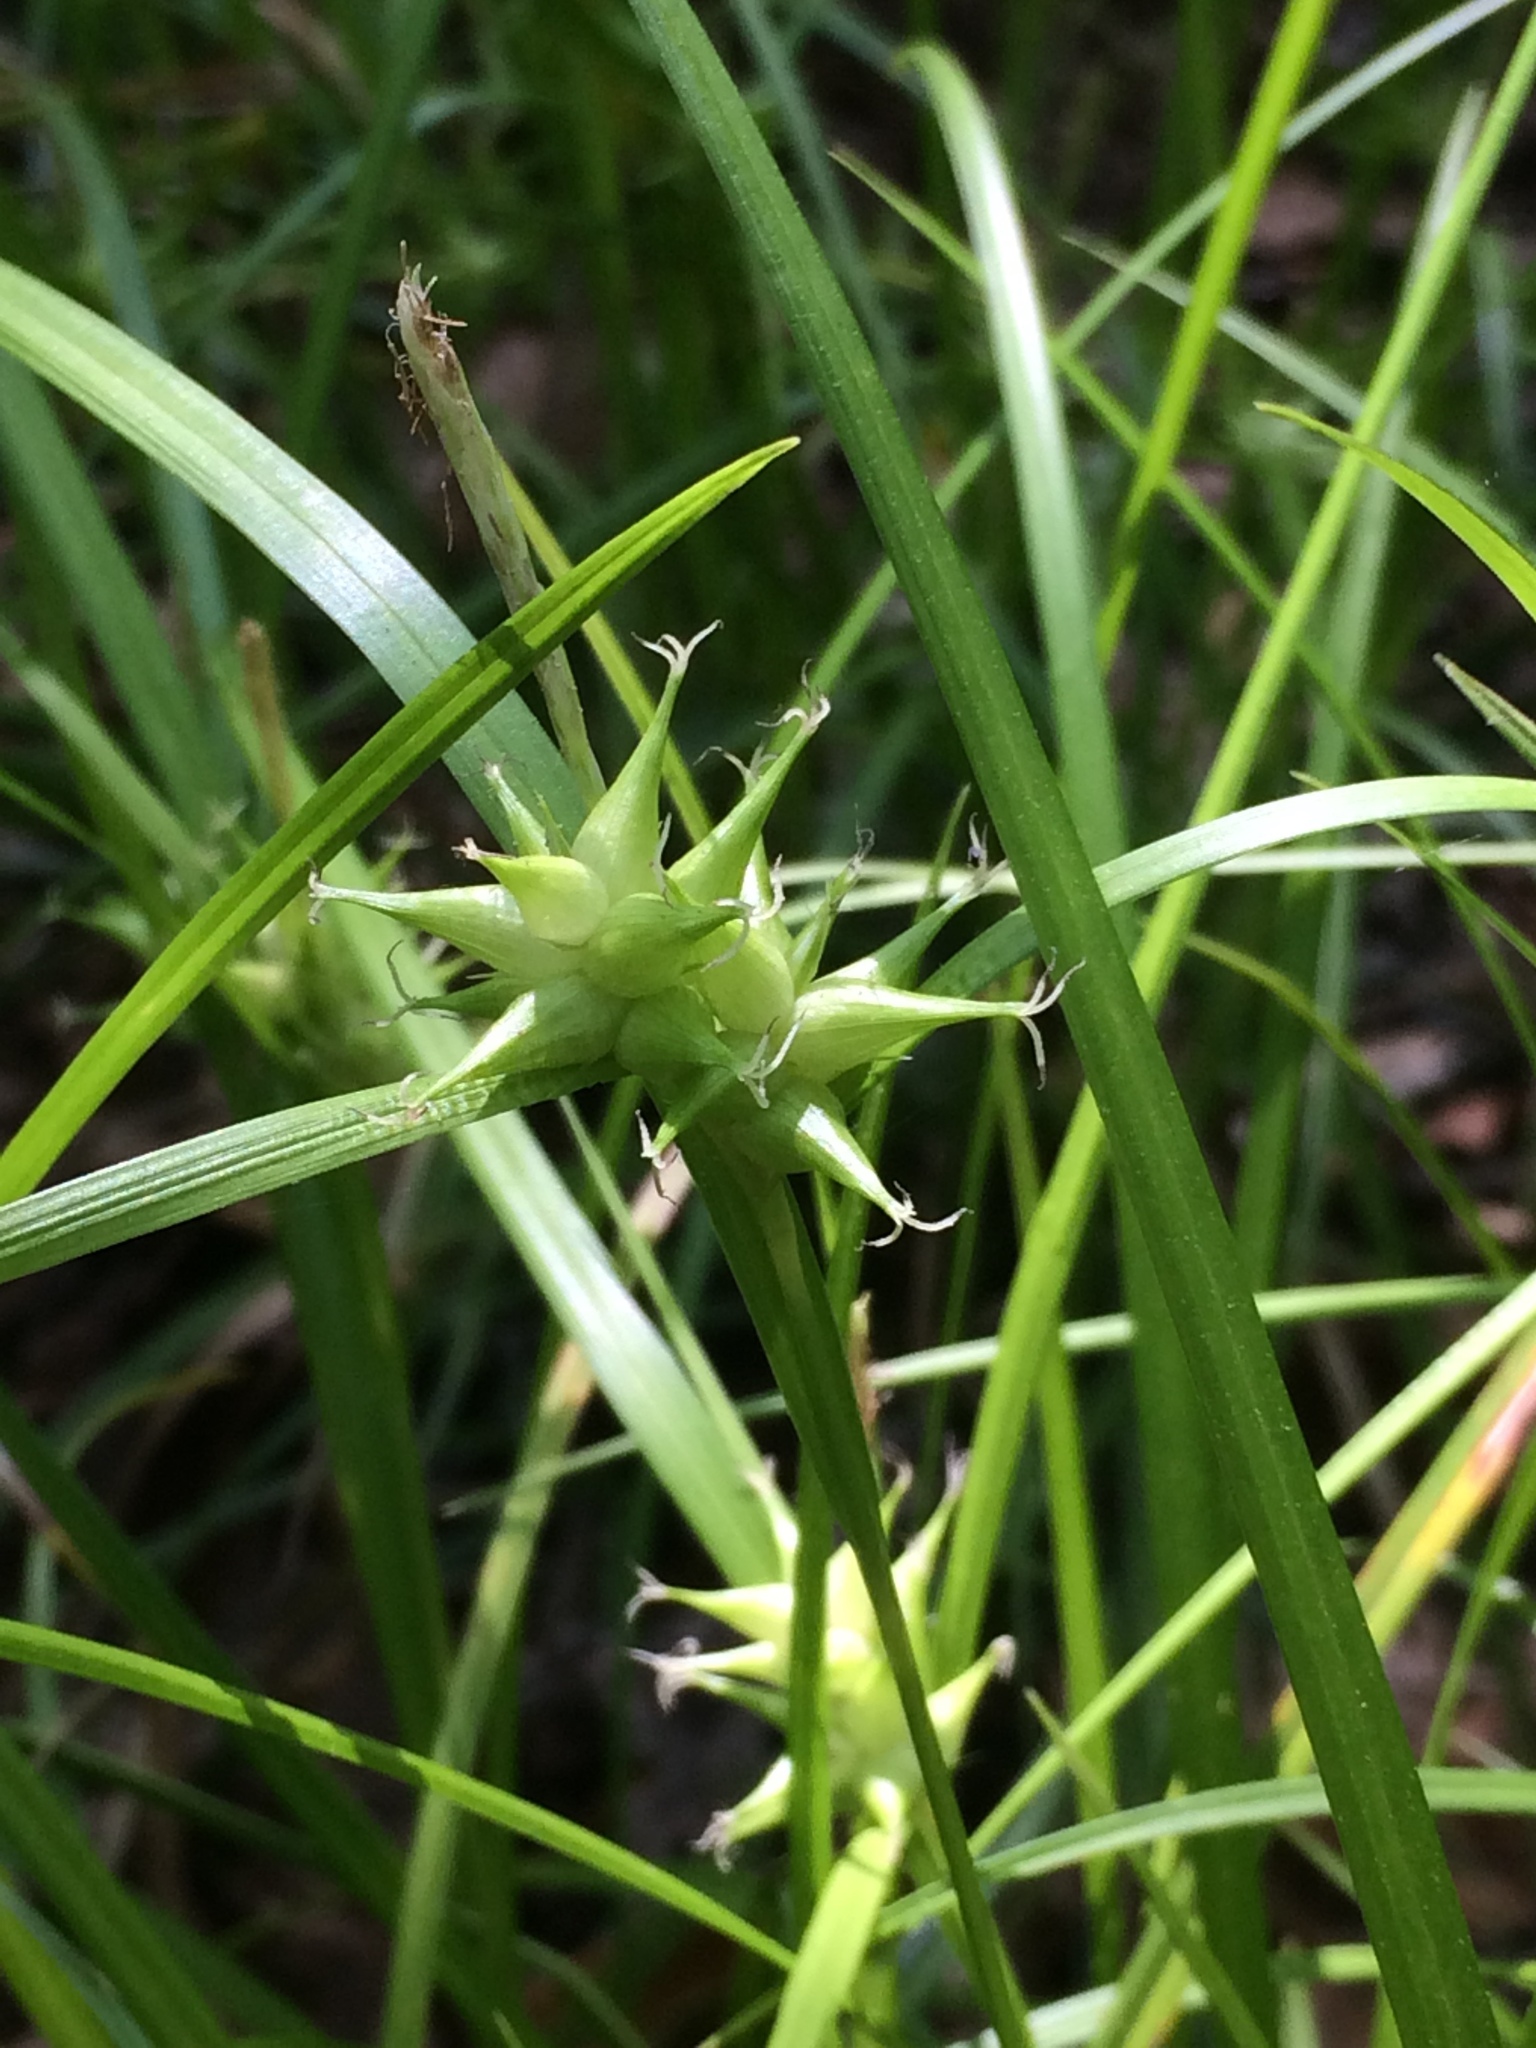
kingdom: Plantae
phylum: Tracheophyta
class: Liliopsida
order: Poales
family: Cyperaceae
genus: Carex
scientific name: Carex intumescens
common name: Greater bladder sedge
